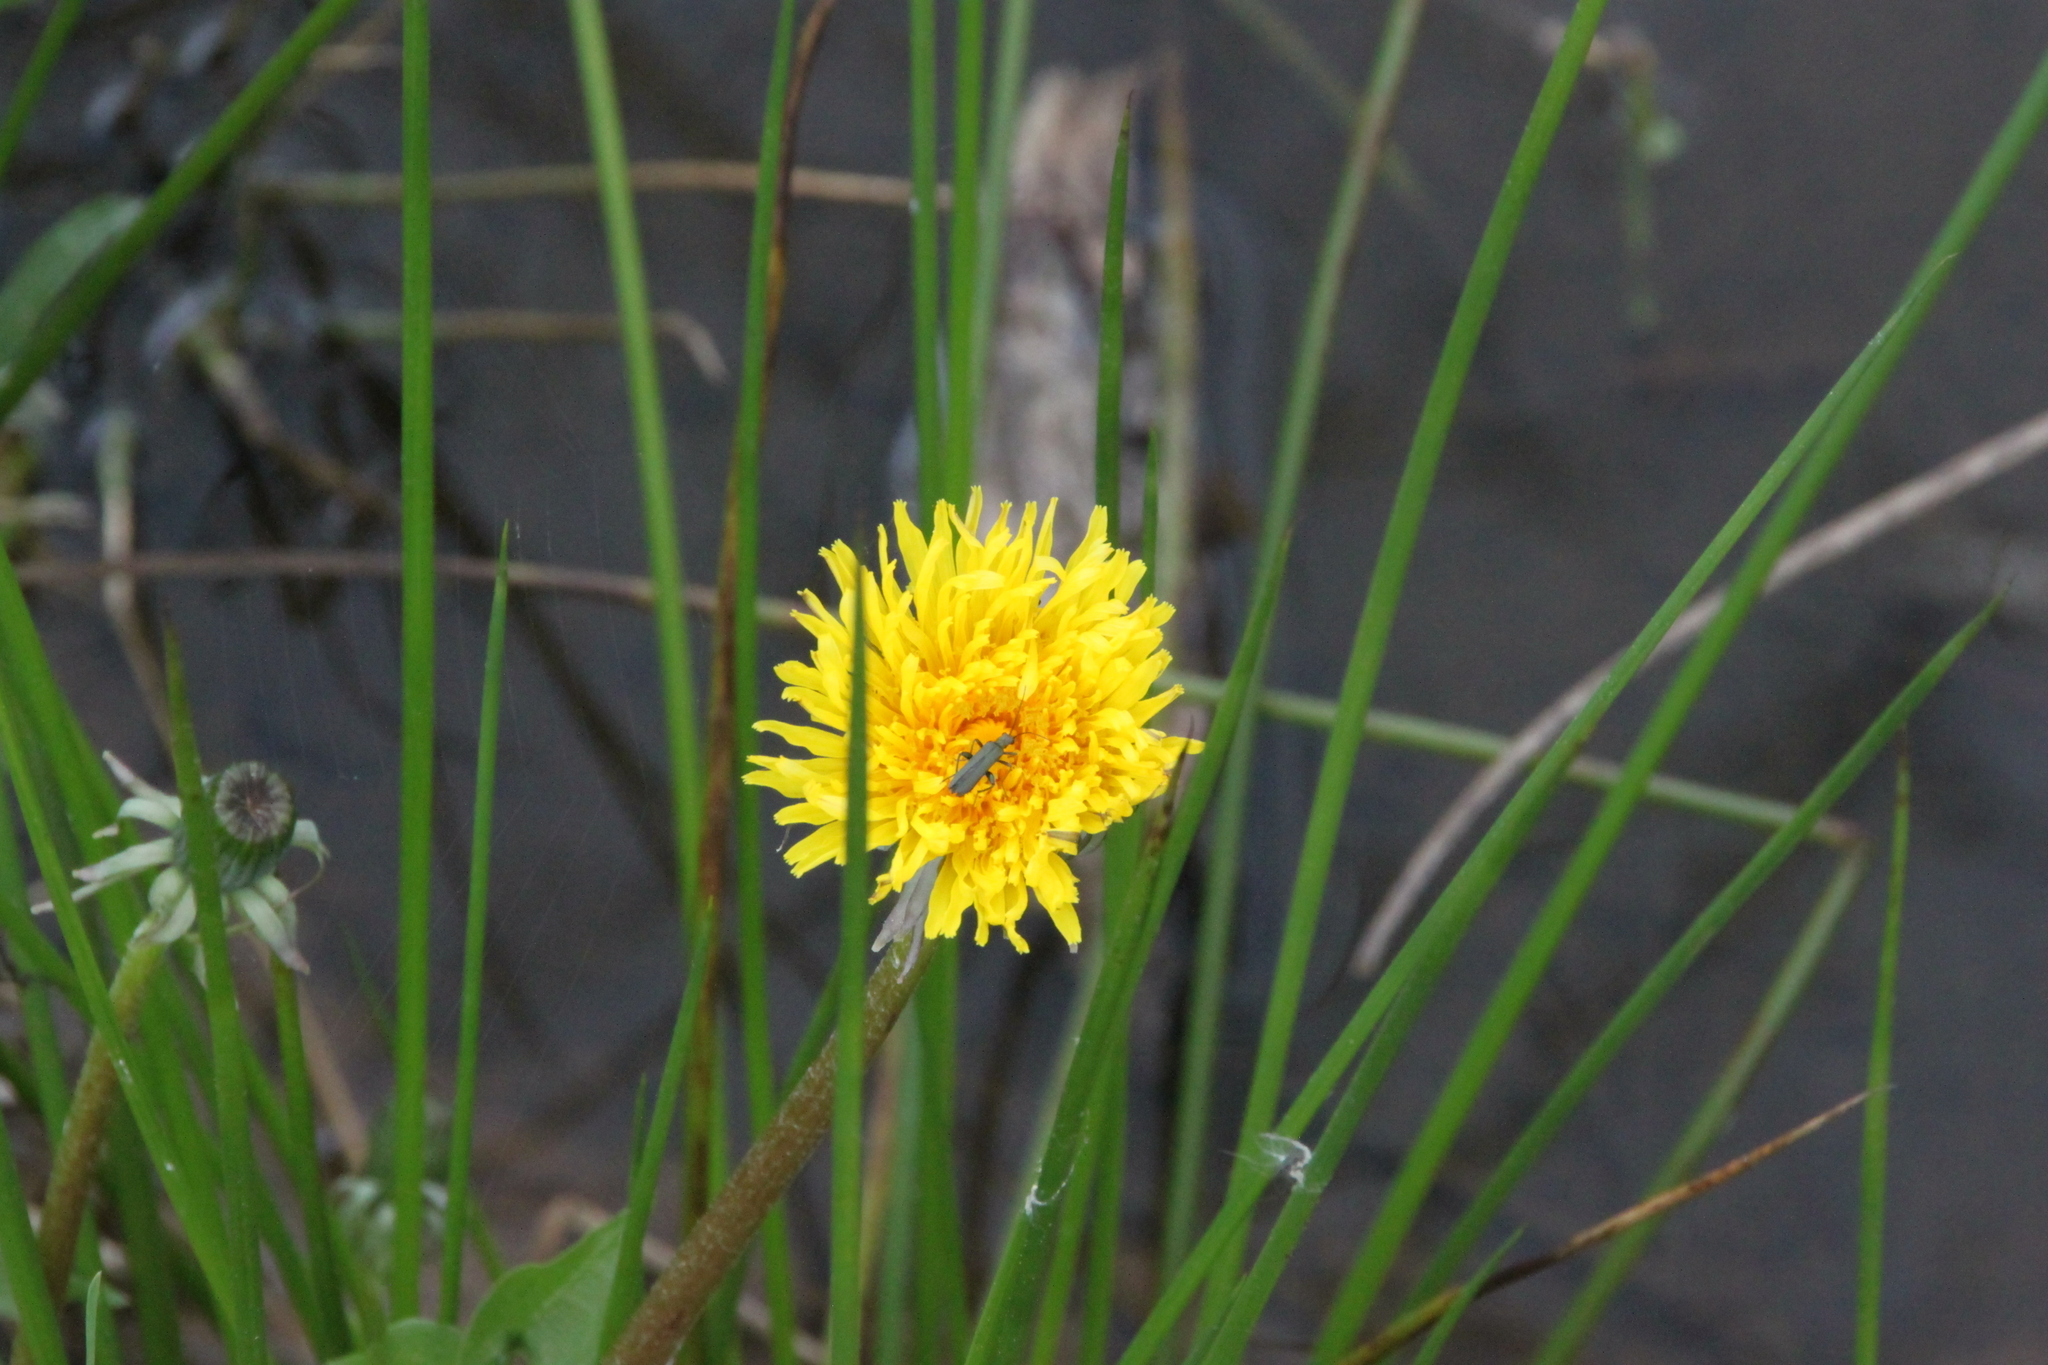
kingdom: Plantae
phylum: Tracheophyta
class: Magnoliopsida
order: Asterales
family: Asteraceae
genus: Taraxacum
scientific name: Taraxacum officinale
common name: Common dandelion
